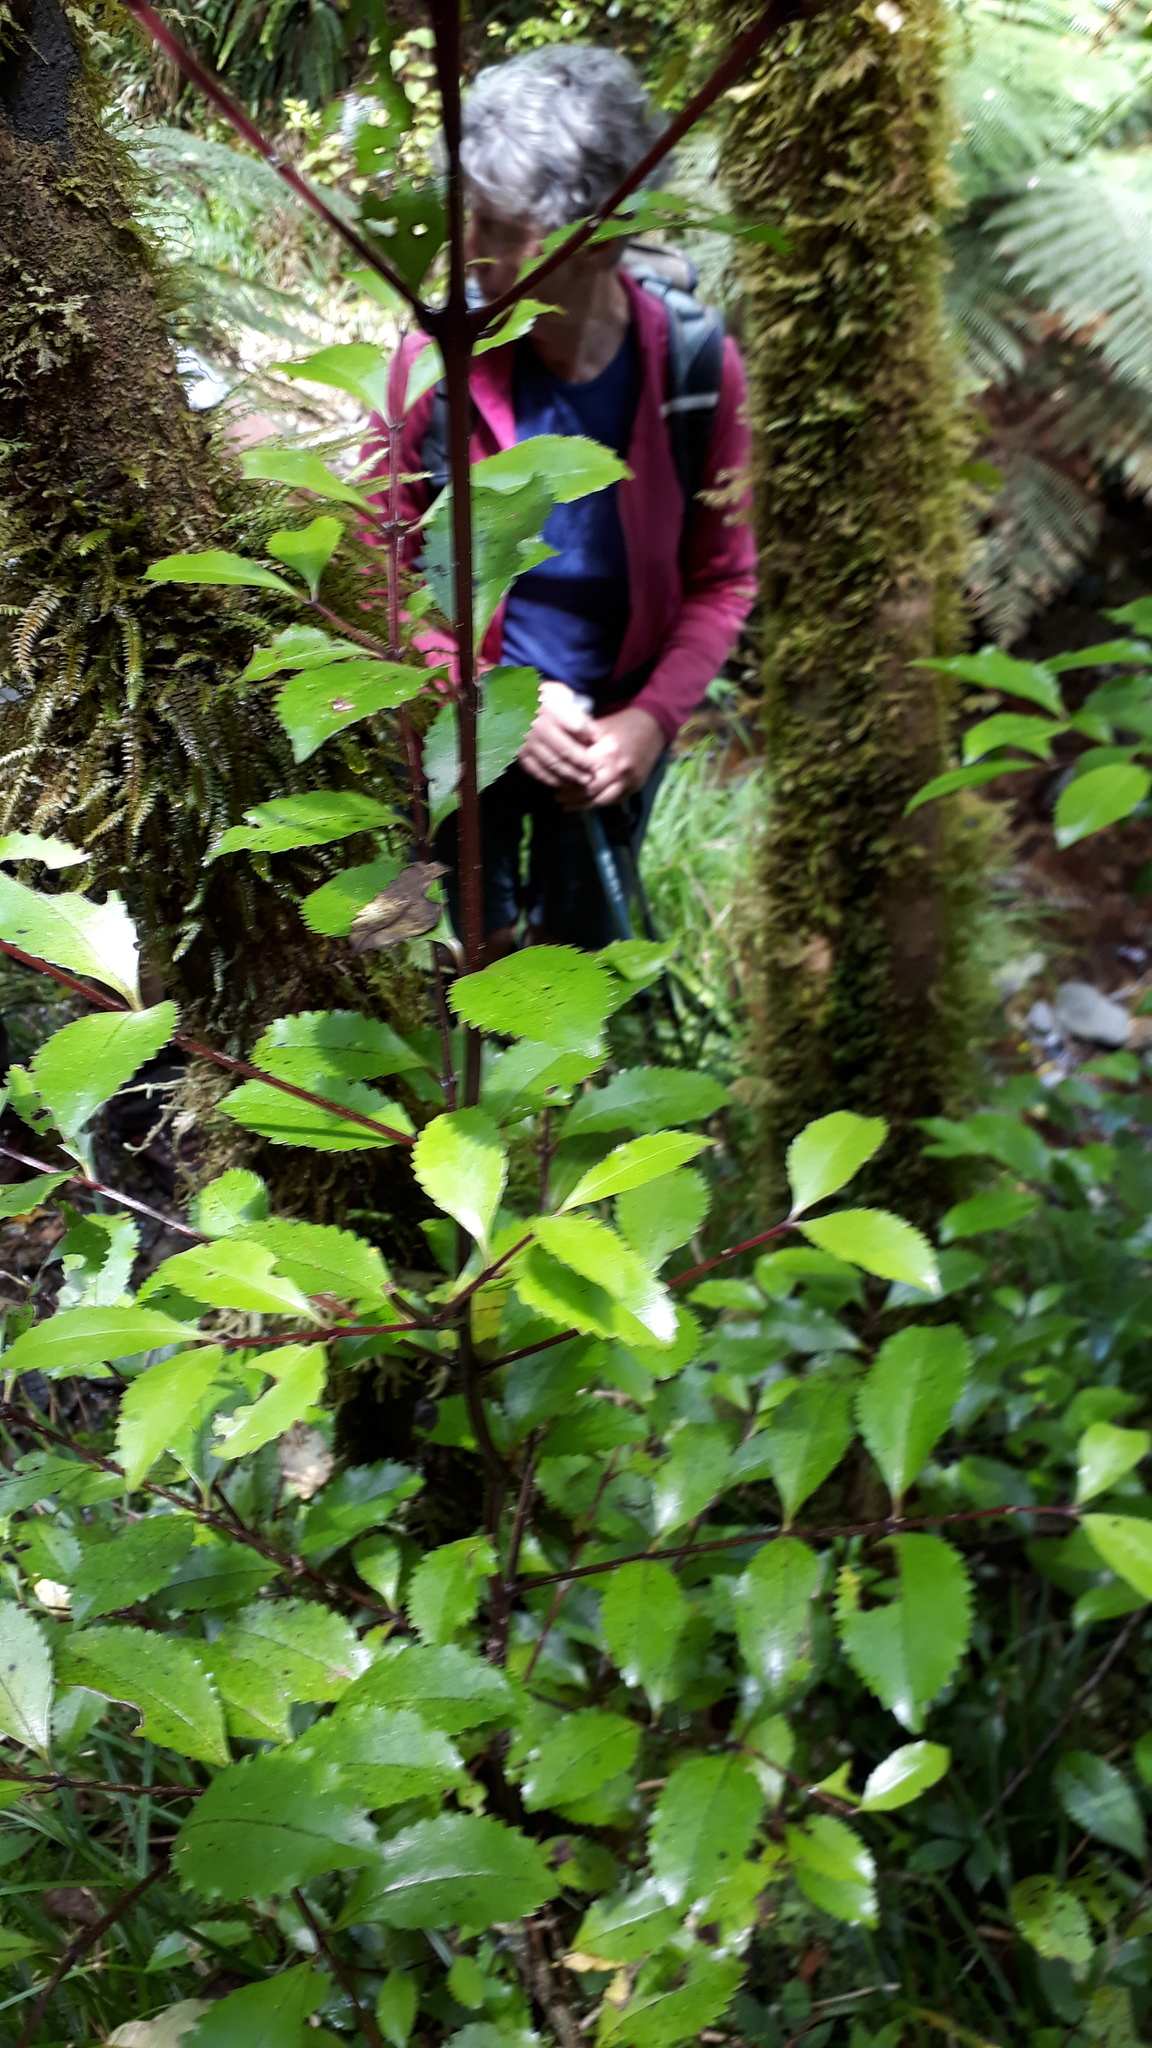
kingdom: Plantae
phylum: Tracheophyta
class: Magnoliopsida
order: Laurales
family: Atherospermataceae
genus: Laurelia
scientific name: Laurelia novae-zelandiae
